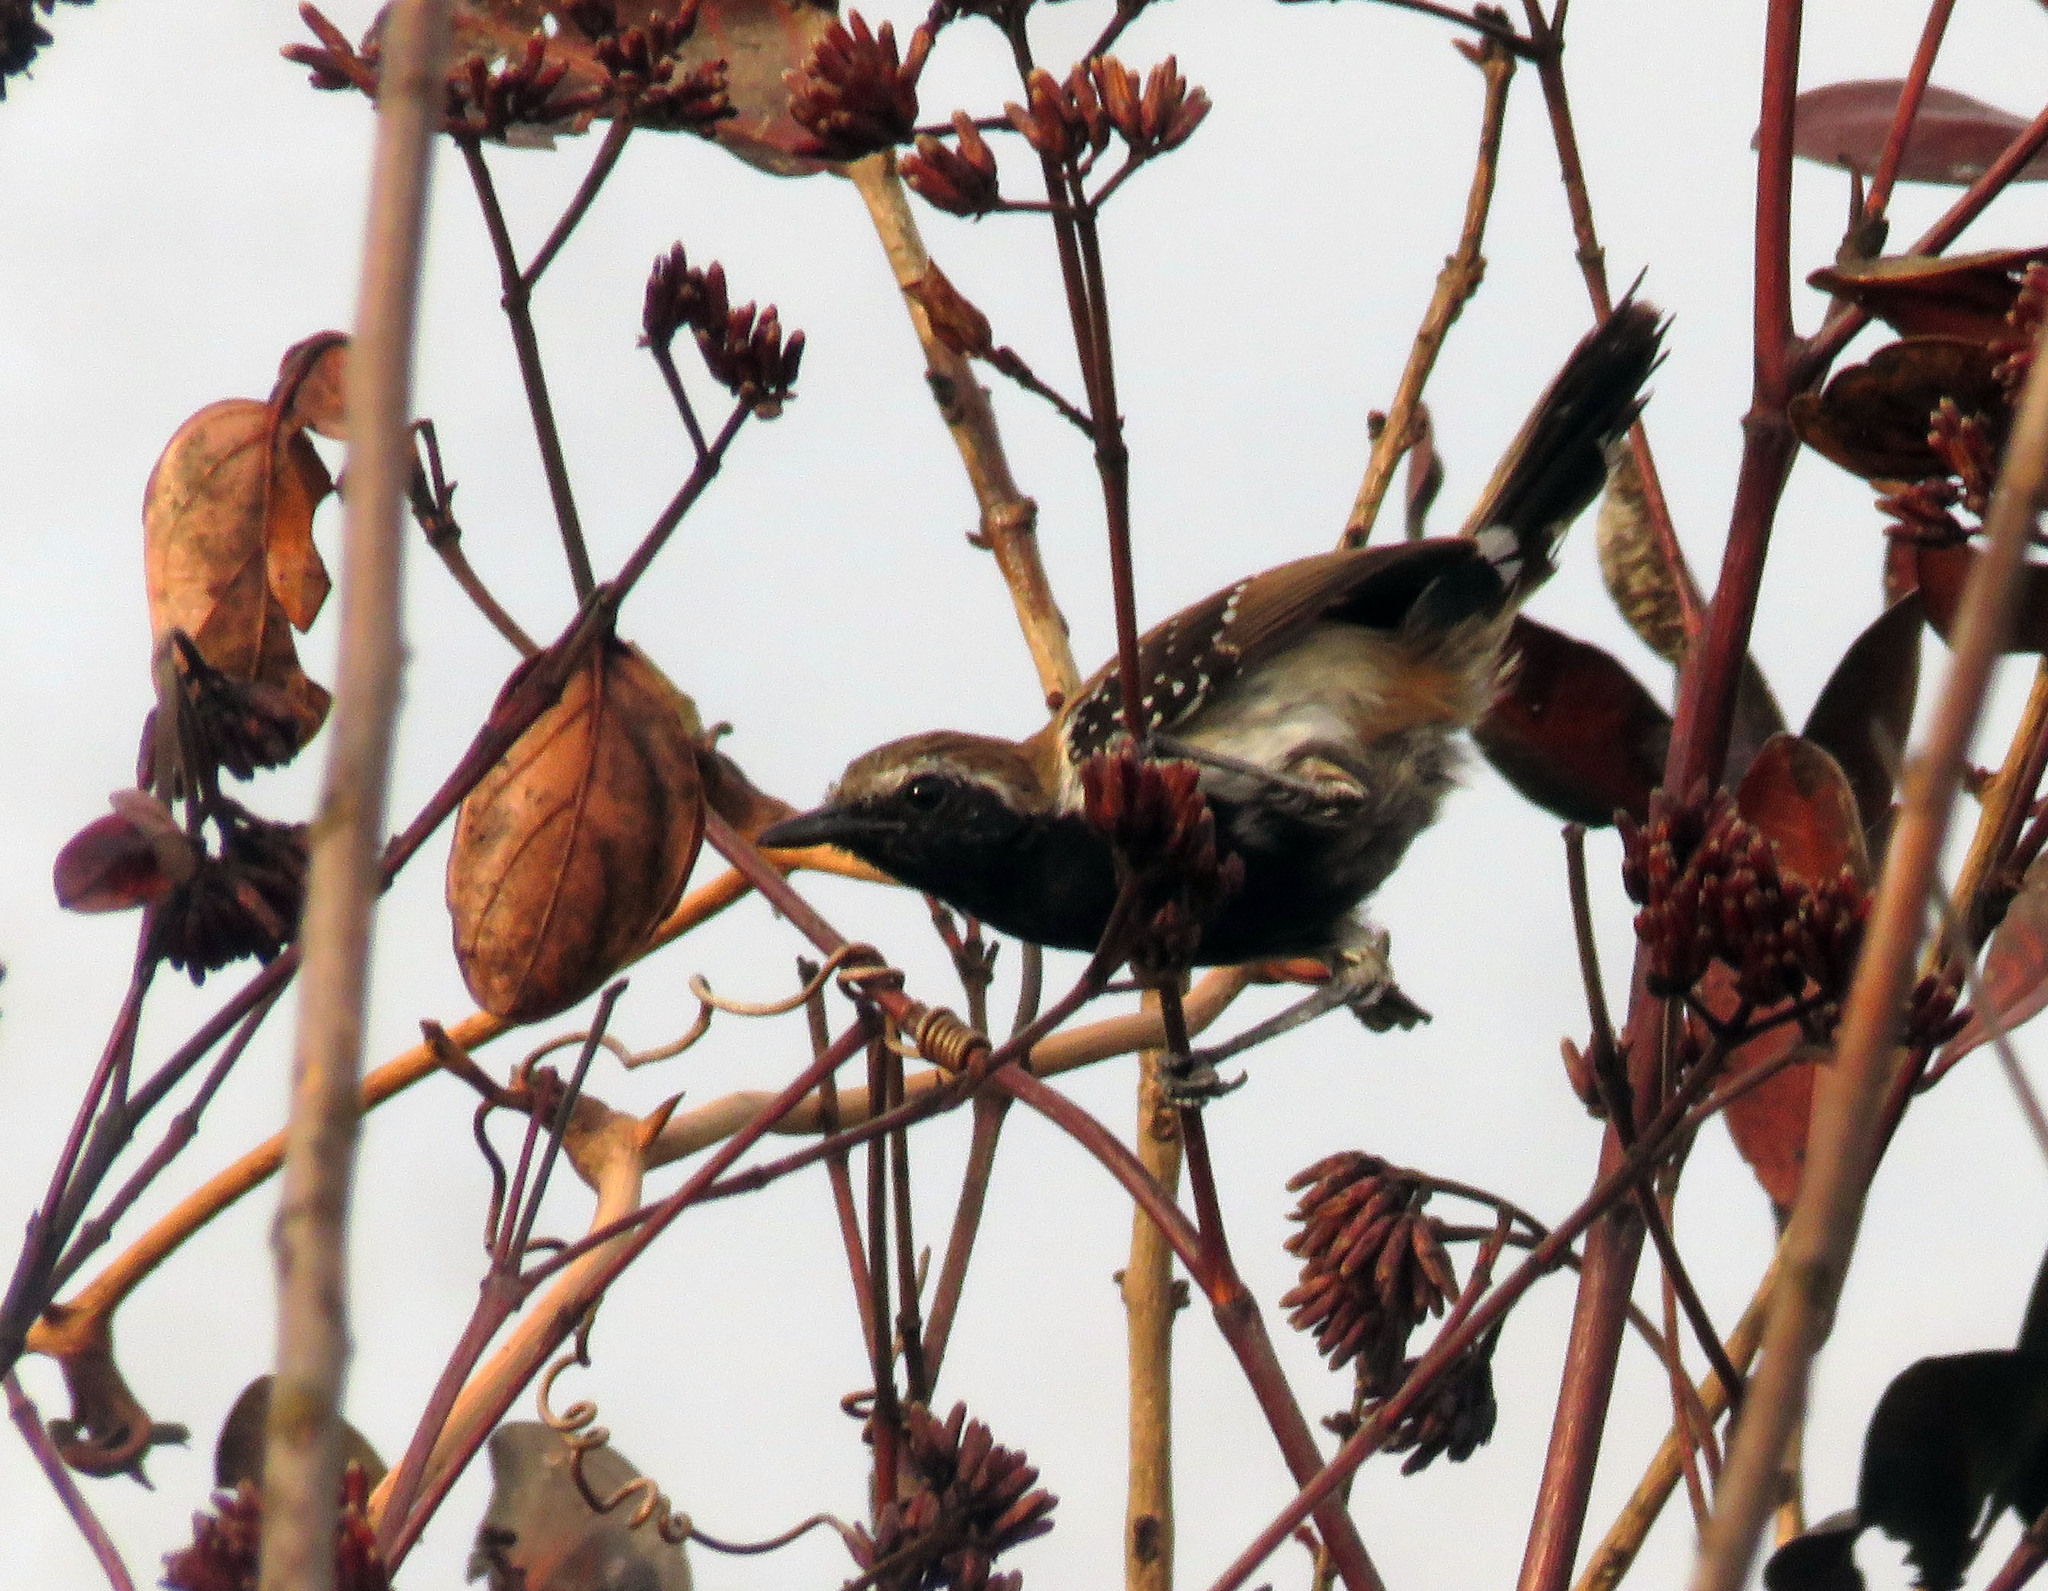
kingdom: Animalia
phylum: Chordata
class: Aves
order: Passeriformes
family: Thamnophilidae
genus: Formicivora
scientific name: Formicivora rufa
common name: Rusty-backed antwren
